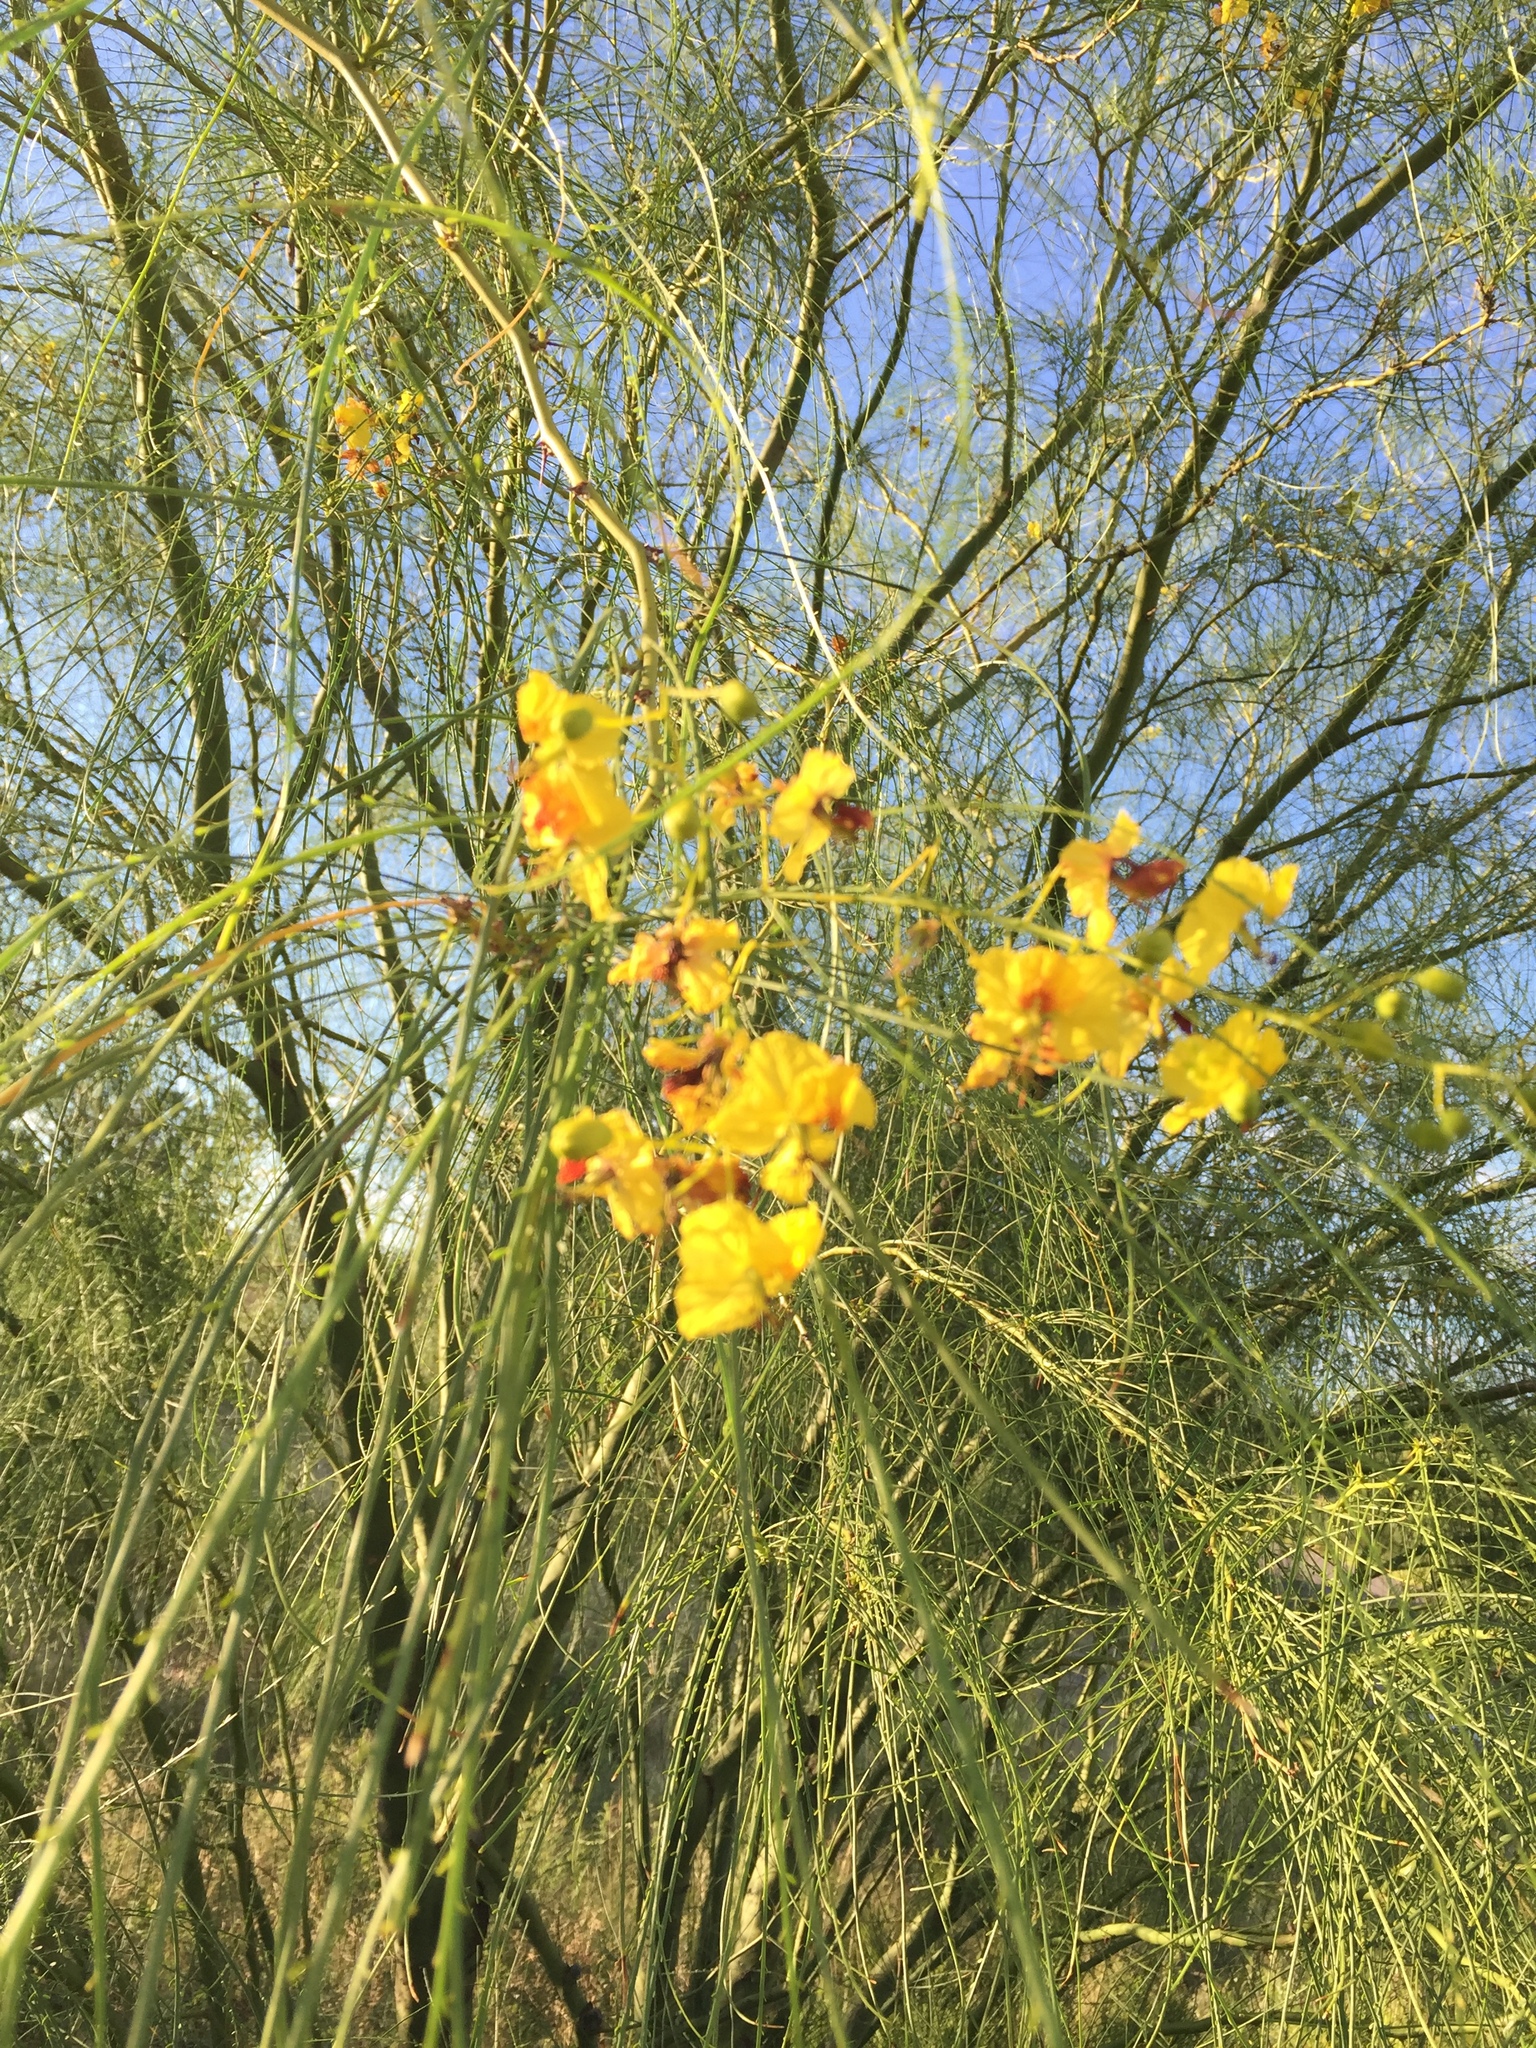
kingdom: Plantae
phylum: Tracheophyta
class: Magnoliopsida
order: Fabales
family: Fabaceae
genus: Parkinsonia
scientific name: Parkinsonia aculeata
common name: Jerusalem thorn
